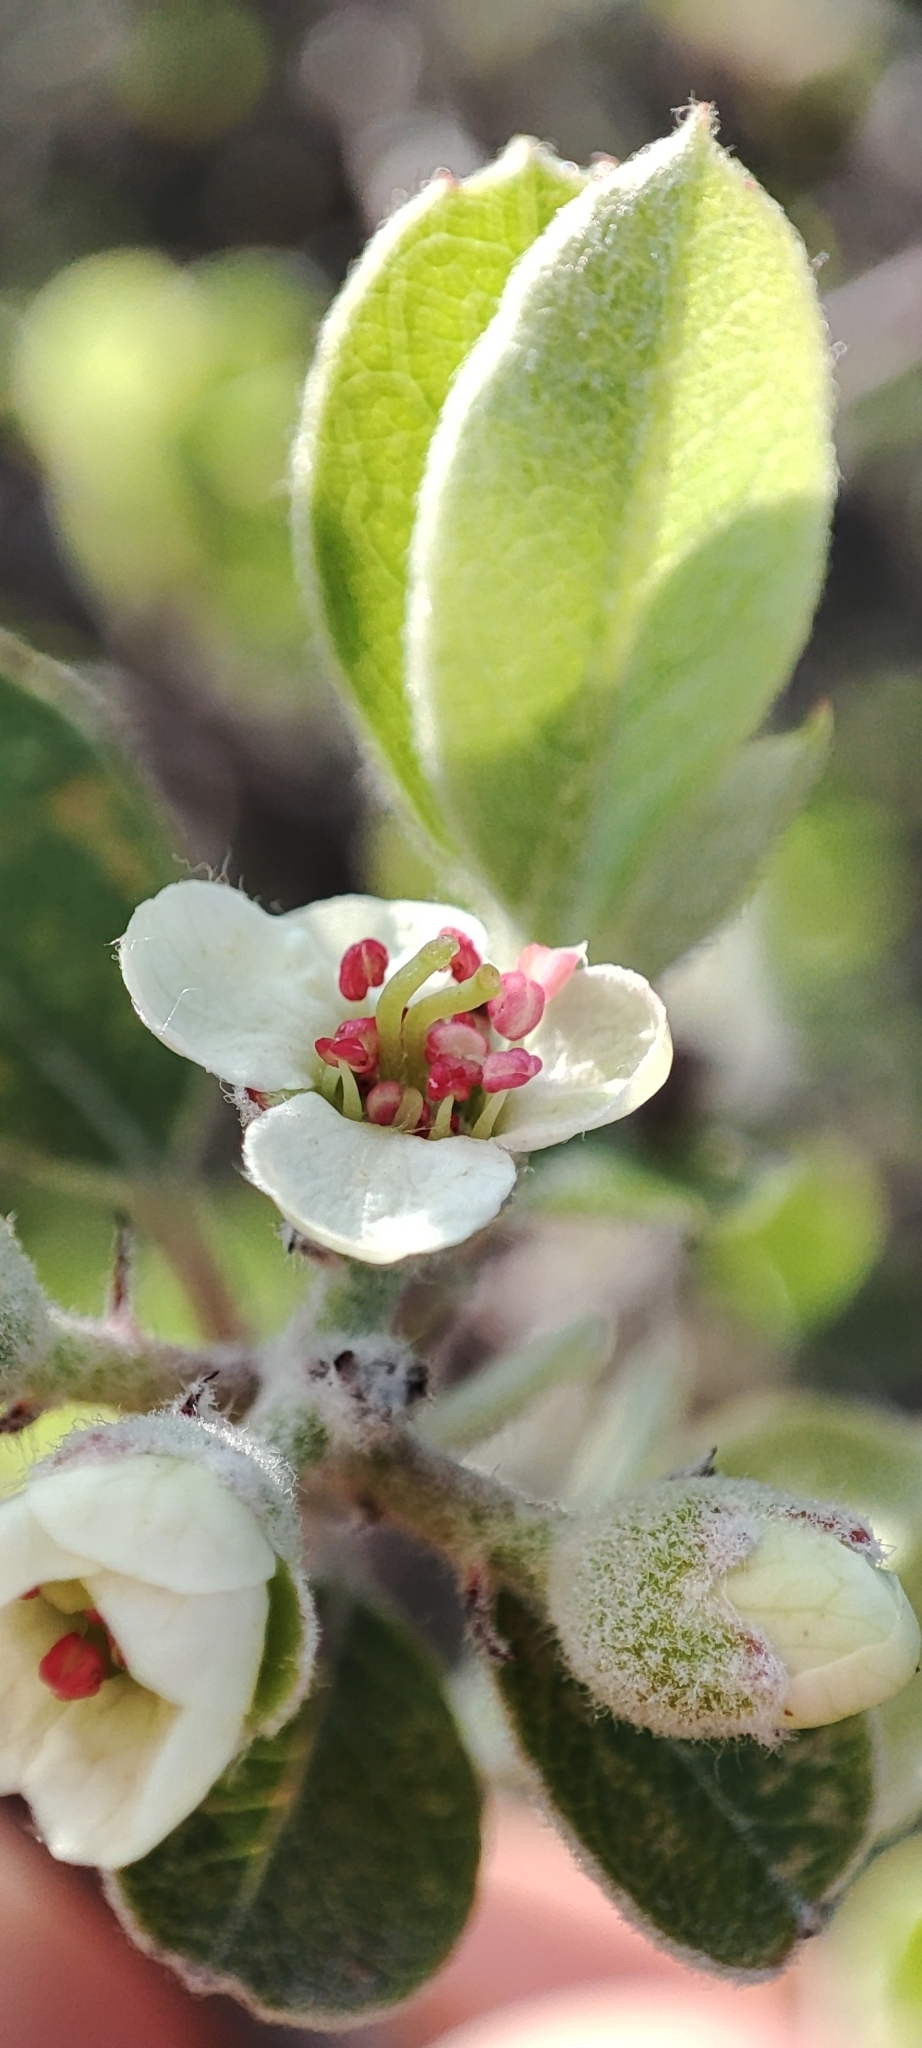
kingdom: Plantae
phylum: Tracheophyta
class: Magnoliopsida
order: Rosales
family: Rosaceae
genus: Malacomeles
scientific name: Malacomeles denticulata
